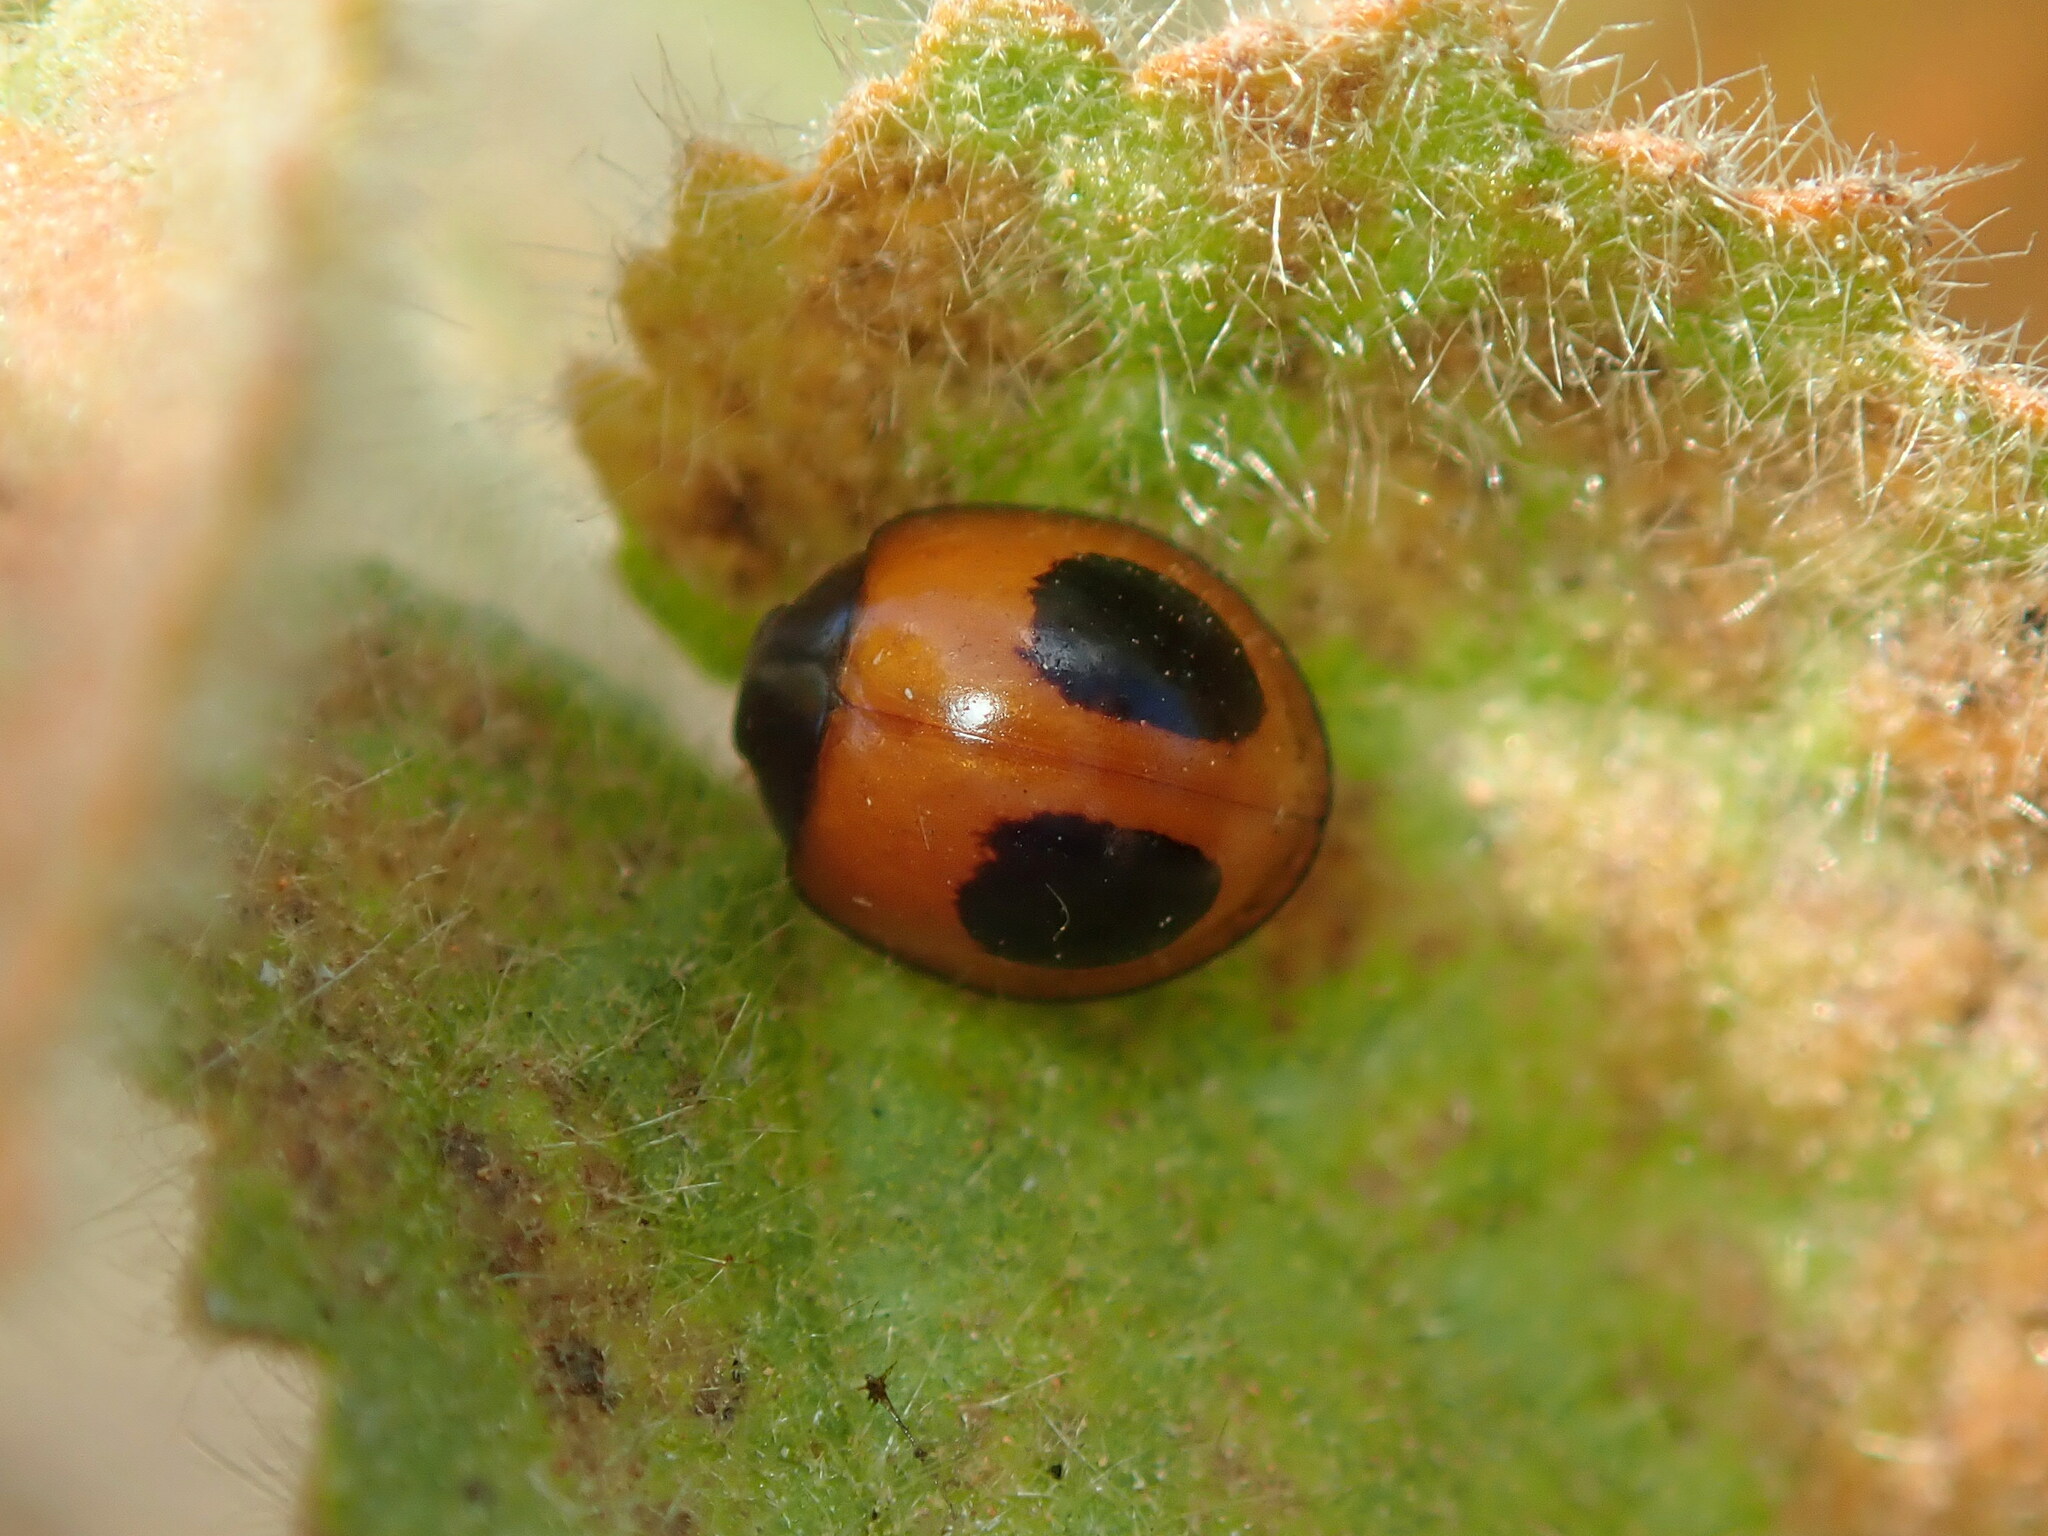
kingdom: Animalia
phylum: Arthropoda
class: Insecta
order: Coleoptera
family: Coccinellidae
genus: Zagreus
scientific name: Zagreus bimaculosus
